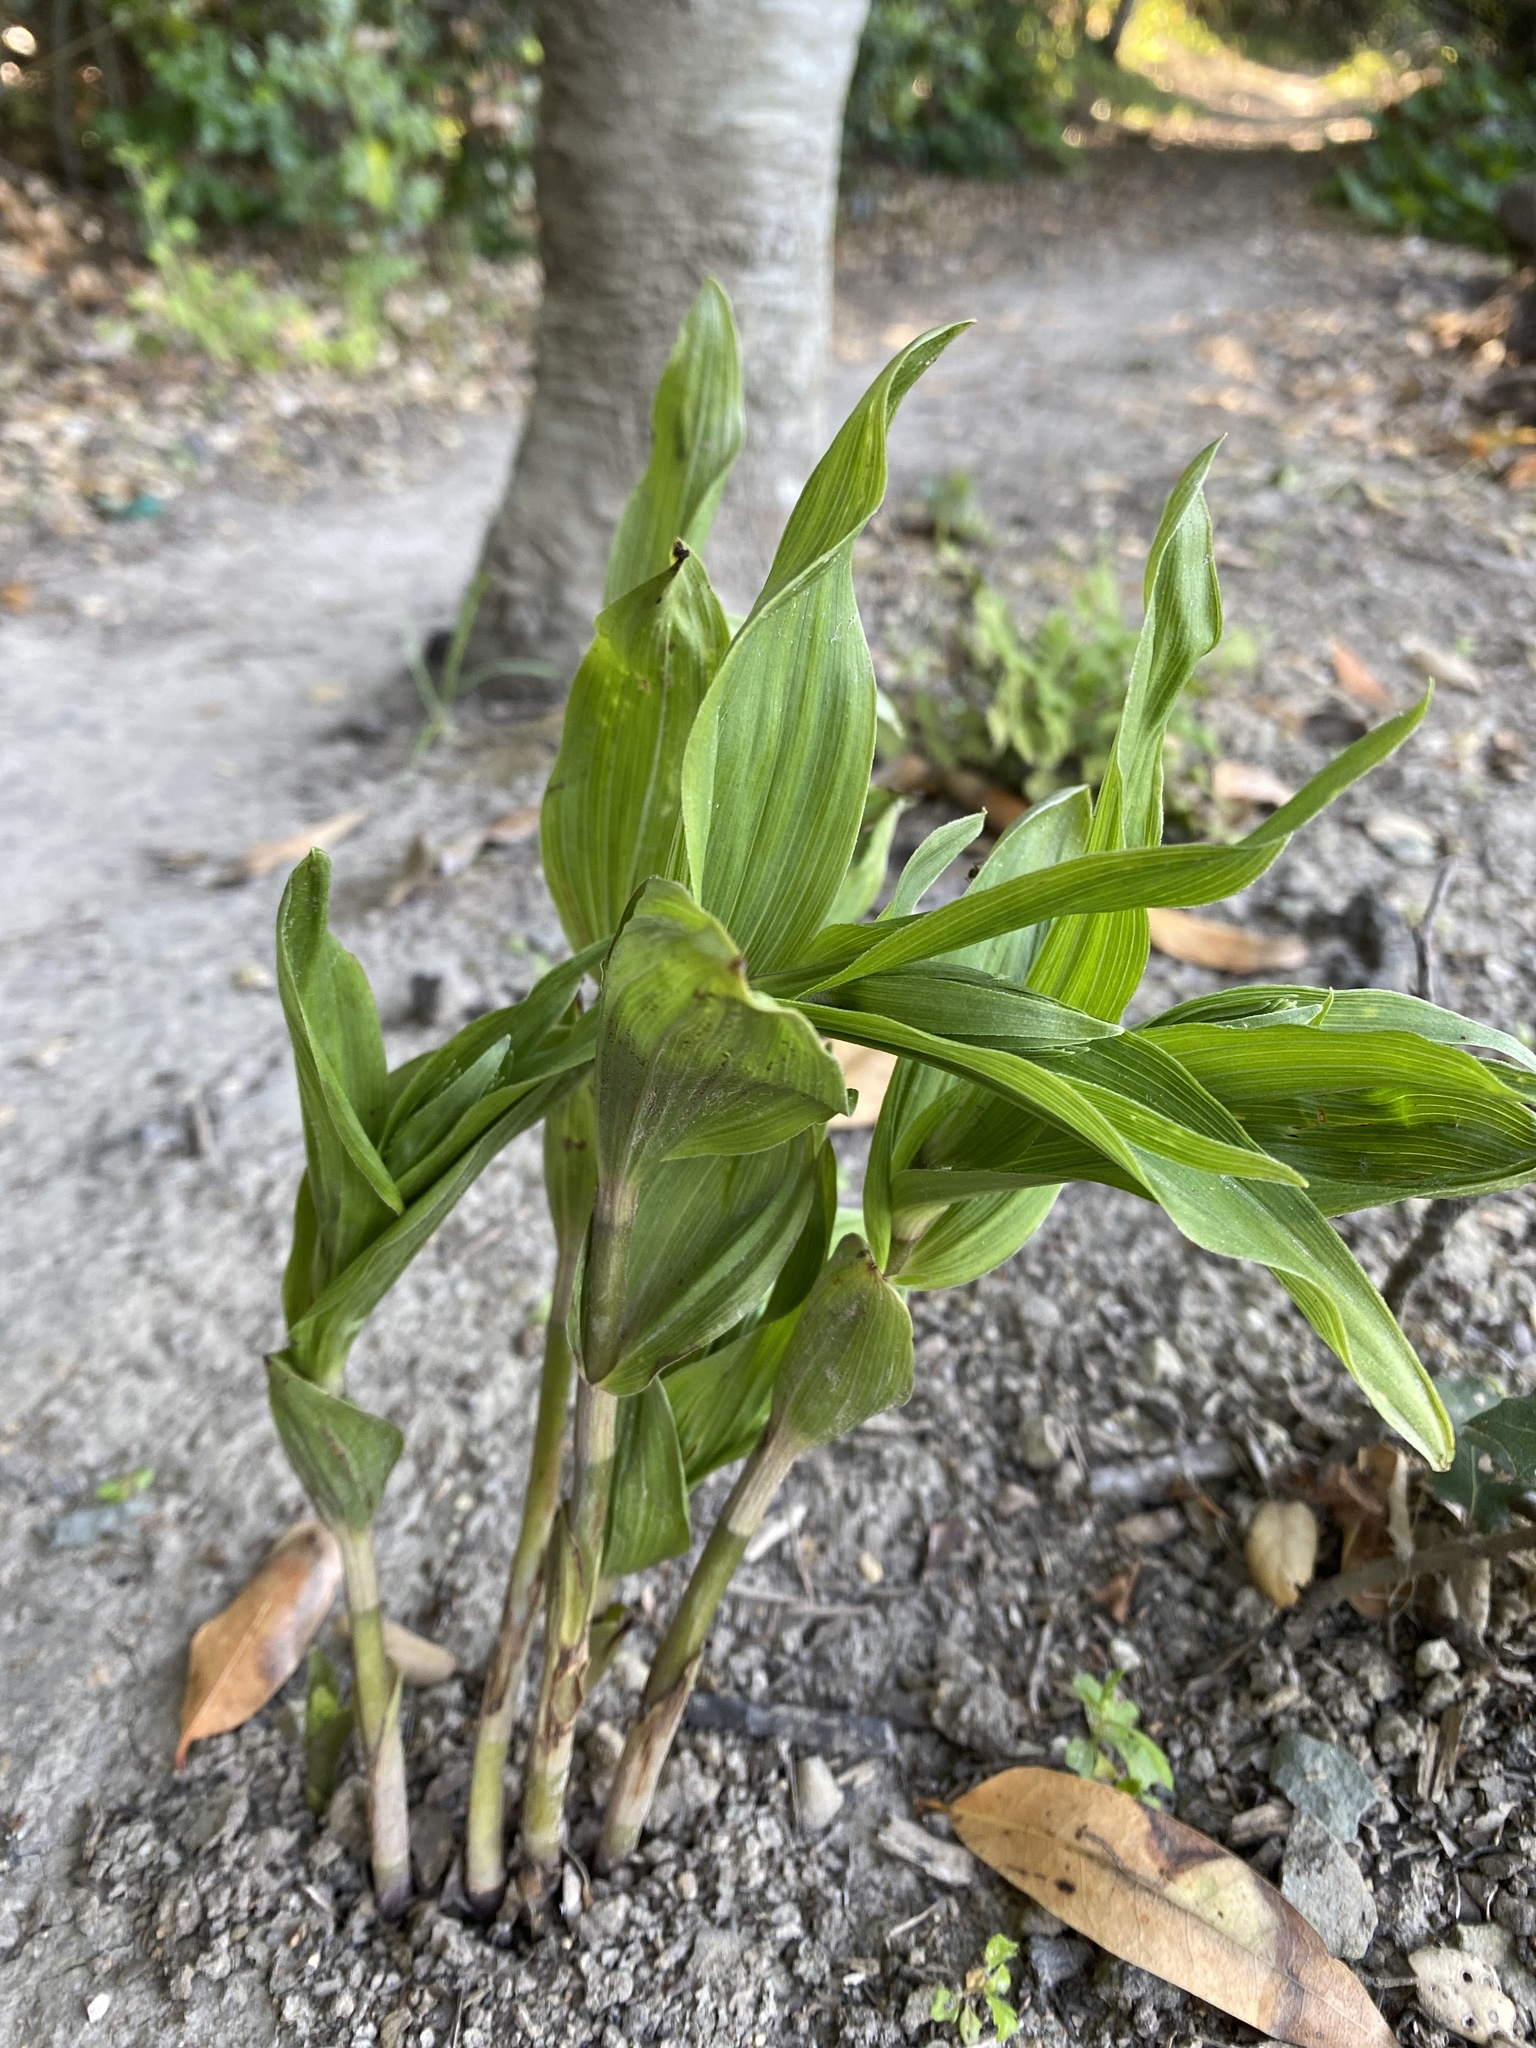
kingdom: Plantae
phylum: Tracheophyta
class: Liliopsida
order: Asparagales
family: Orchidaceae
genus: Epipactis
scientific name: Epipactis helleborine
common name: Broad-leaved helleborine
